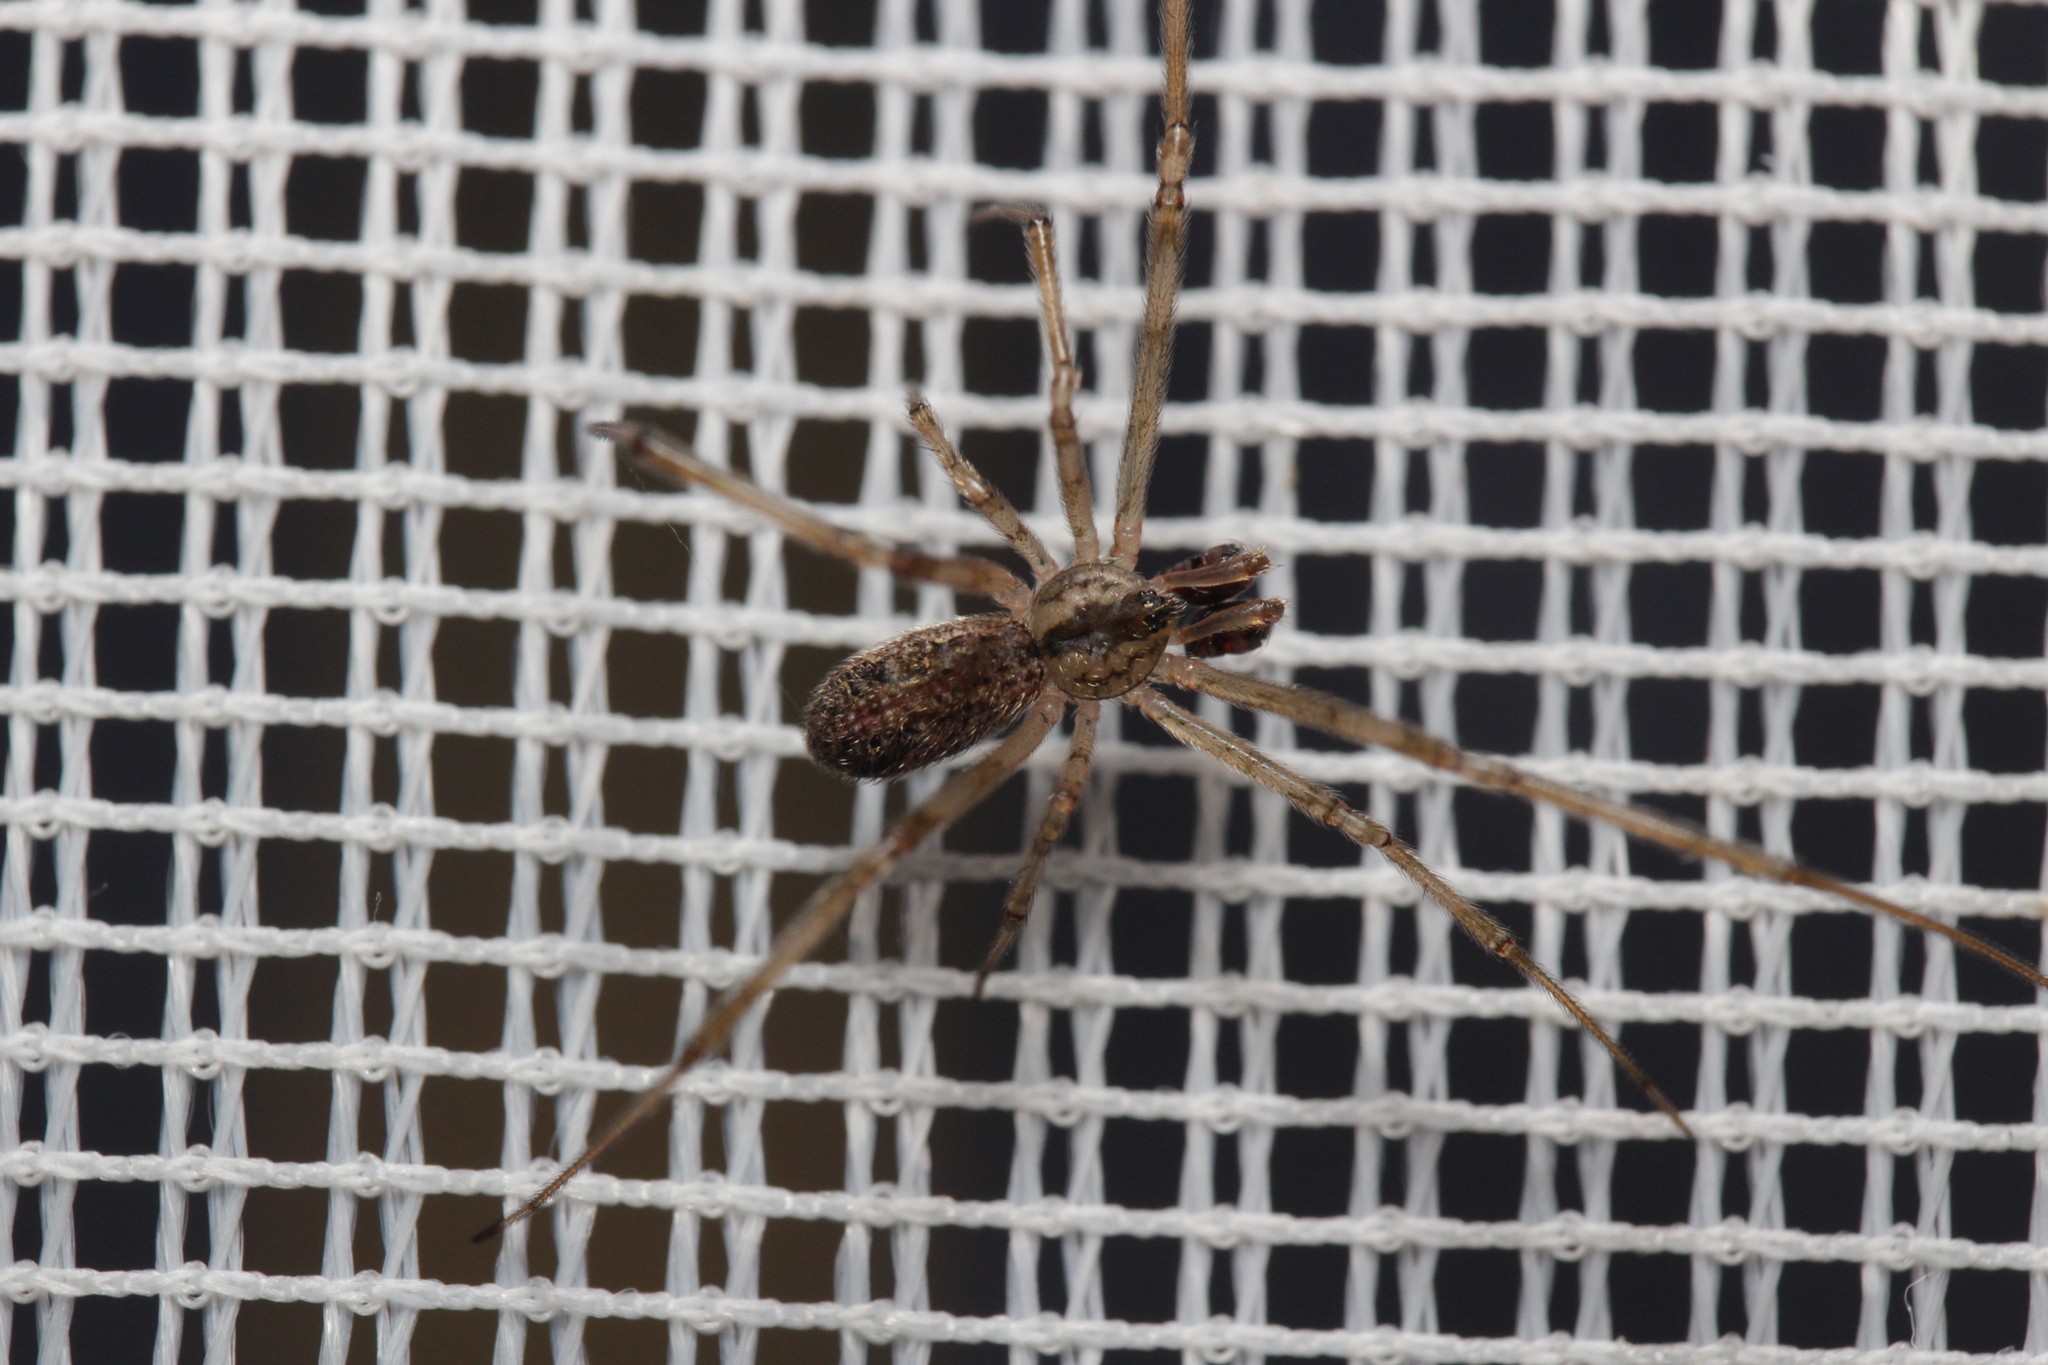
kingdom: Animalia
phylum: Arthropoda
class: Arachnida
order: Araneae
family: Theridiidae
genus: Episinus
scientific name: Episinus maculipes
